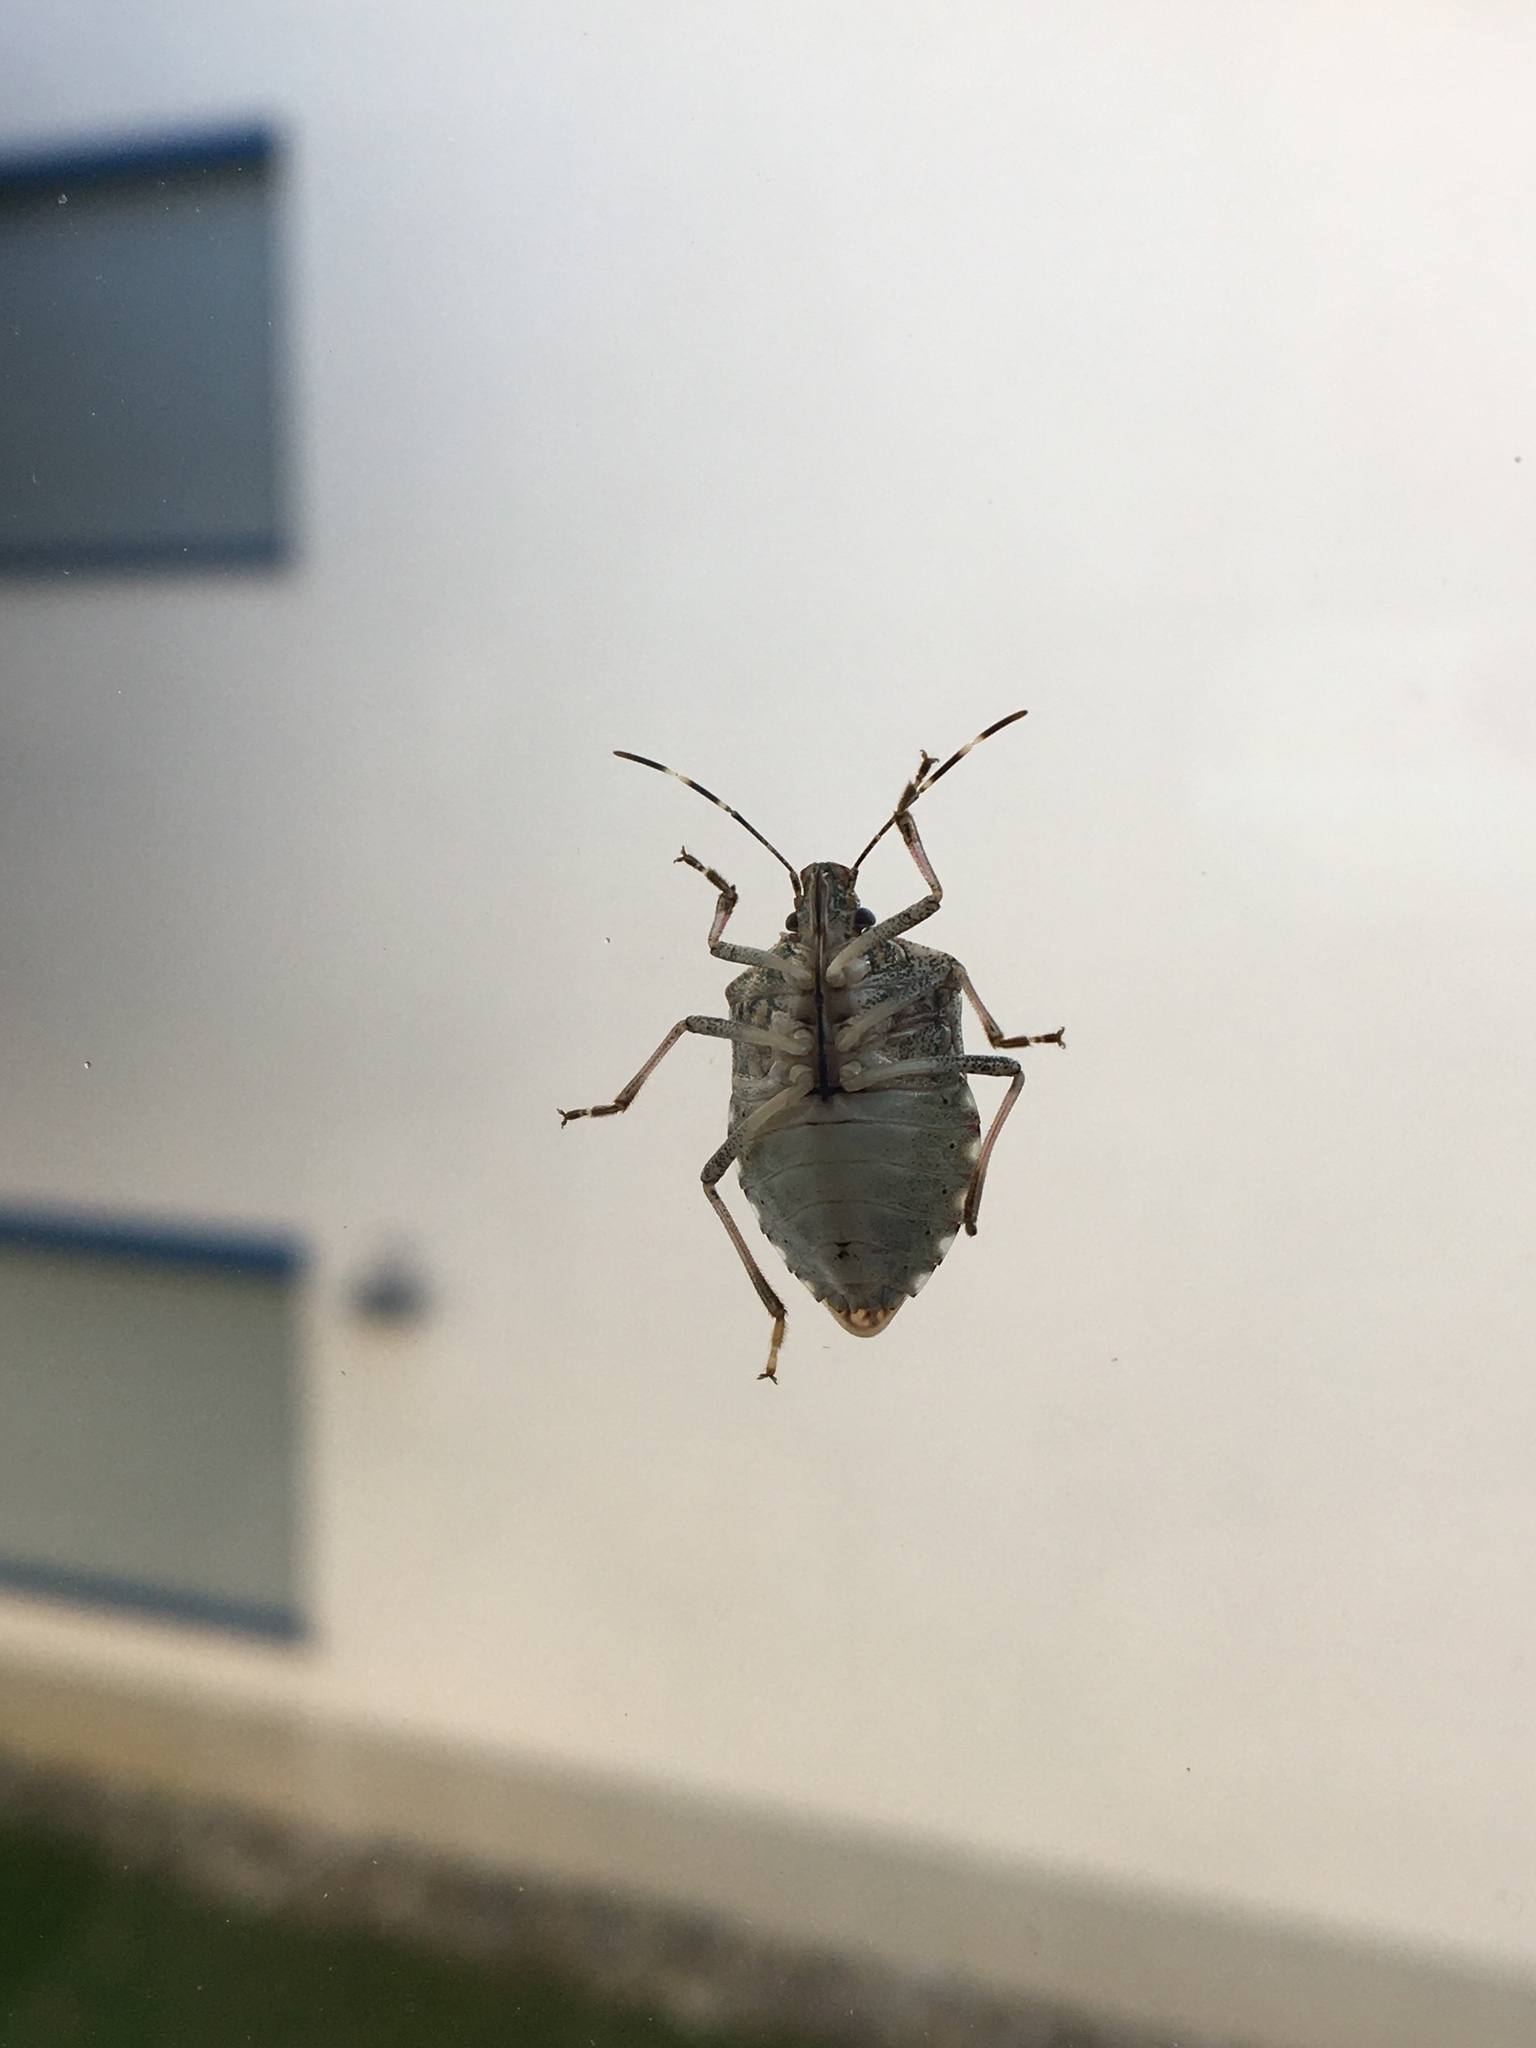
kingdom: Animalia
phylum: Arthropoda
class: Insecta
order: Hemiptera
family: Pentatomidae
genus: Halyomorpha
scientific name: Halyomorpha halys
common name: Brown marmorated stink bug
